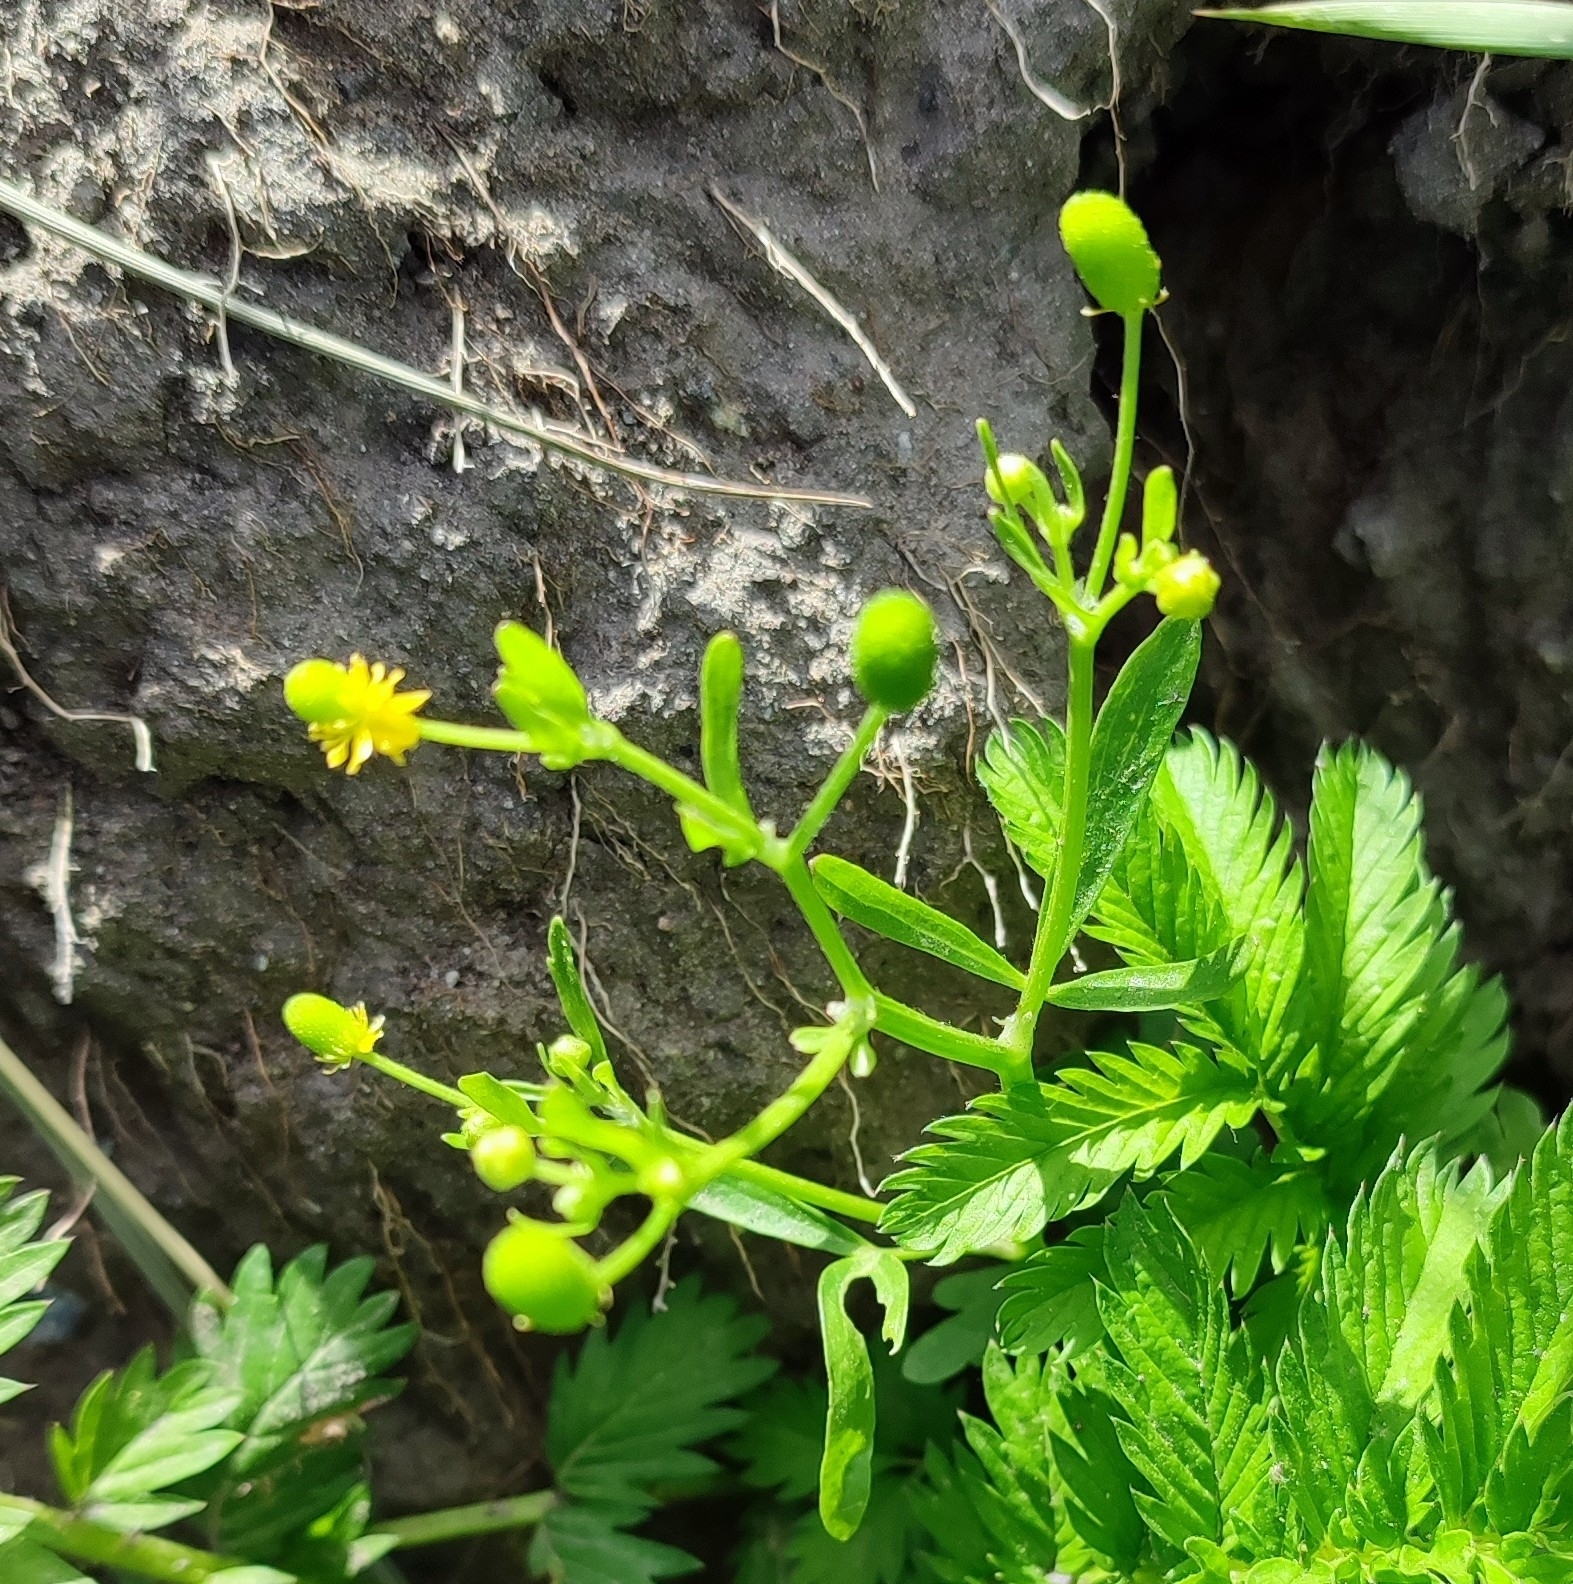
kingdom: Plantae
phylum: Tracheophyta
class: Magnoliopsida
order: Ranunculales
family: Ranunculaceae
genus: Ranunculus
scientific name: Ranunculus sceleratus
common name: Celery-leaved buttercup
